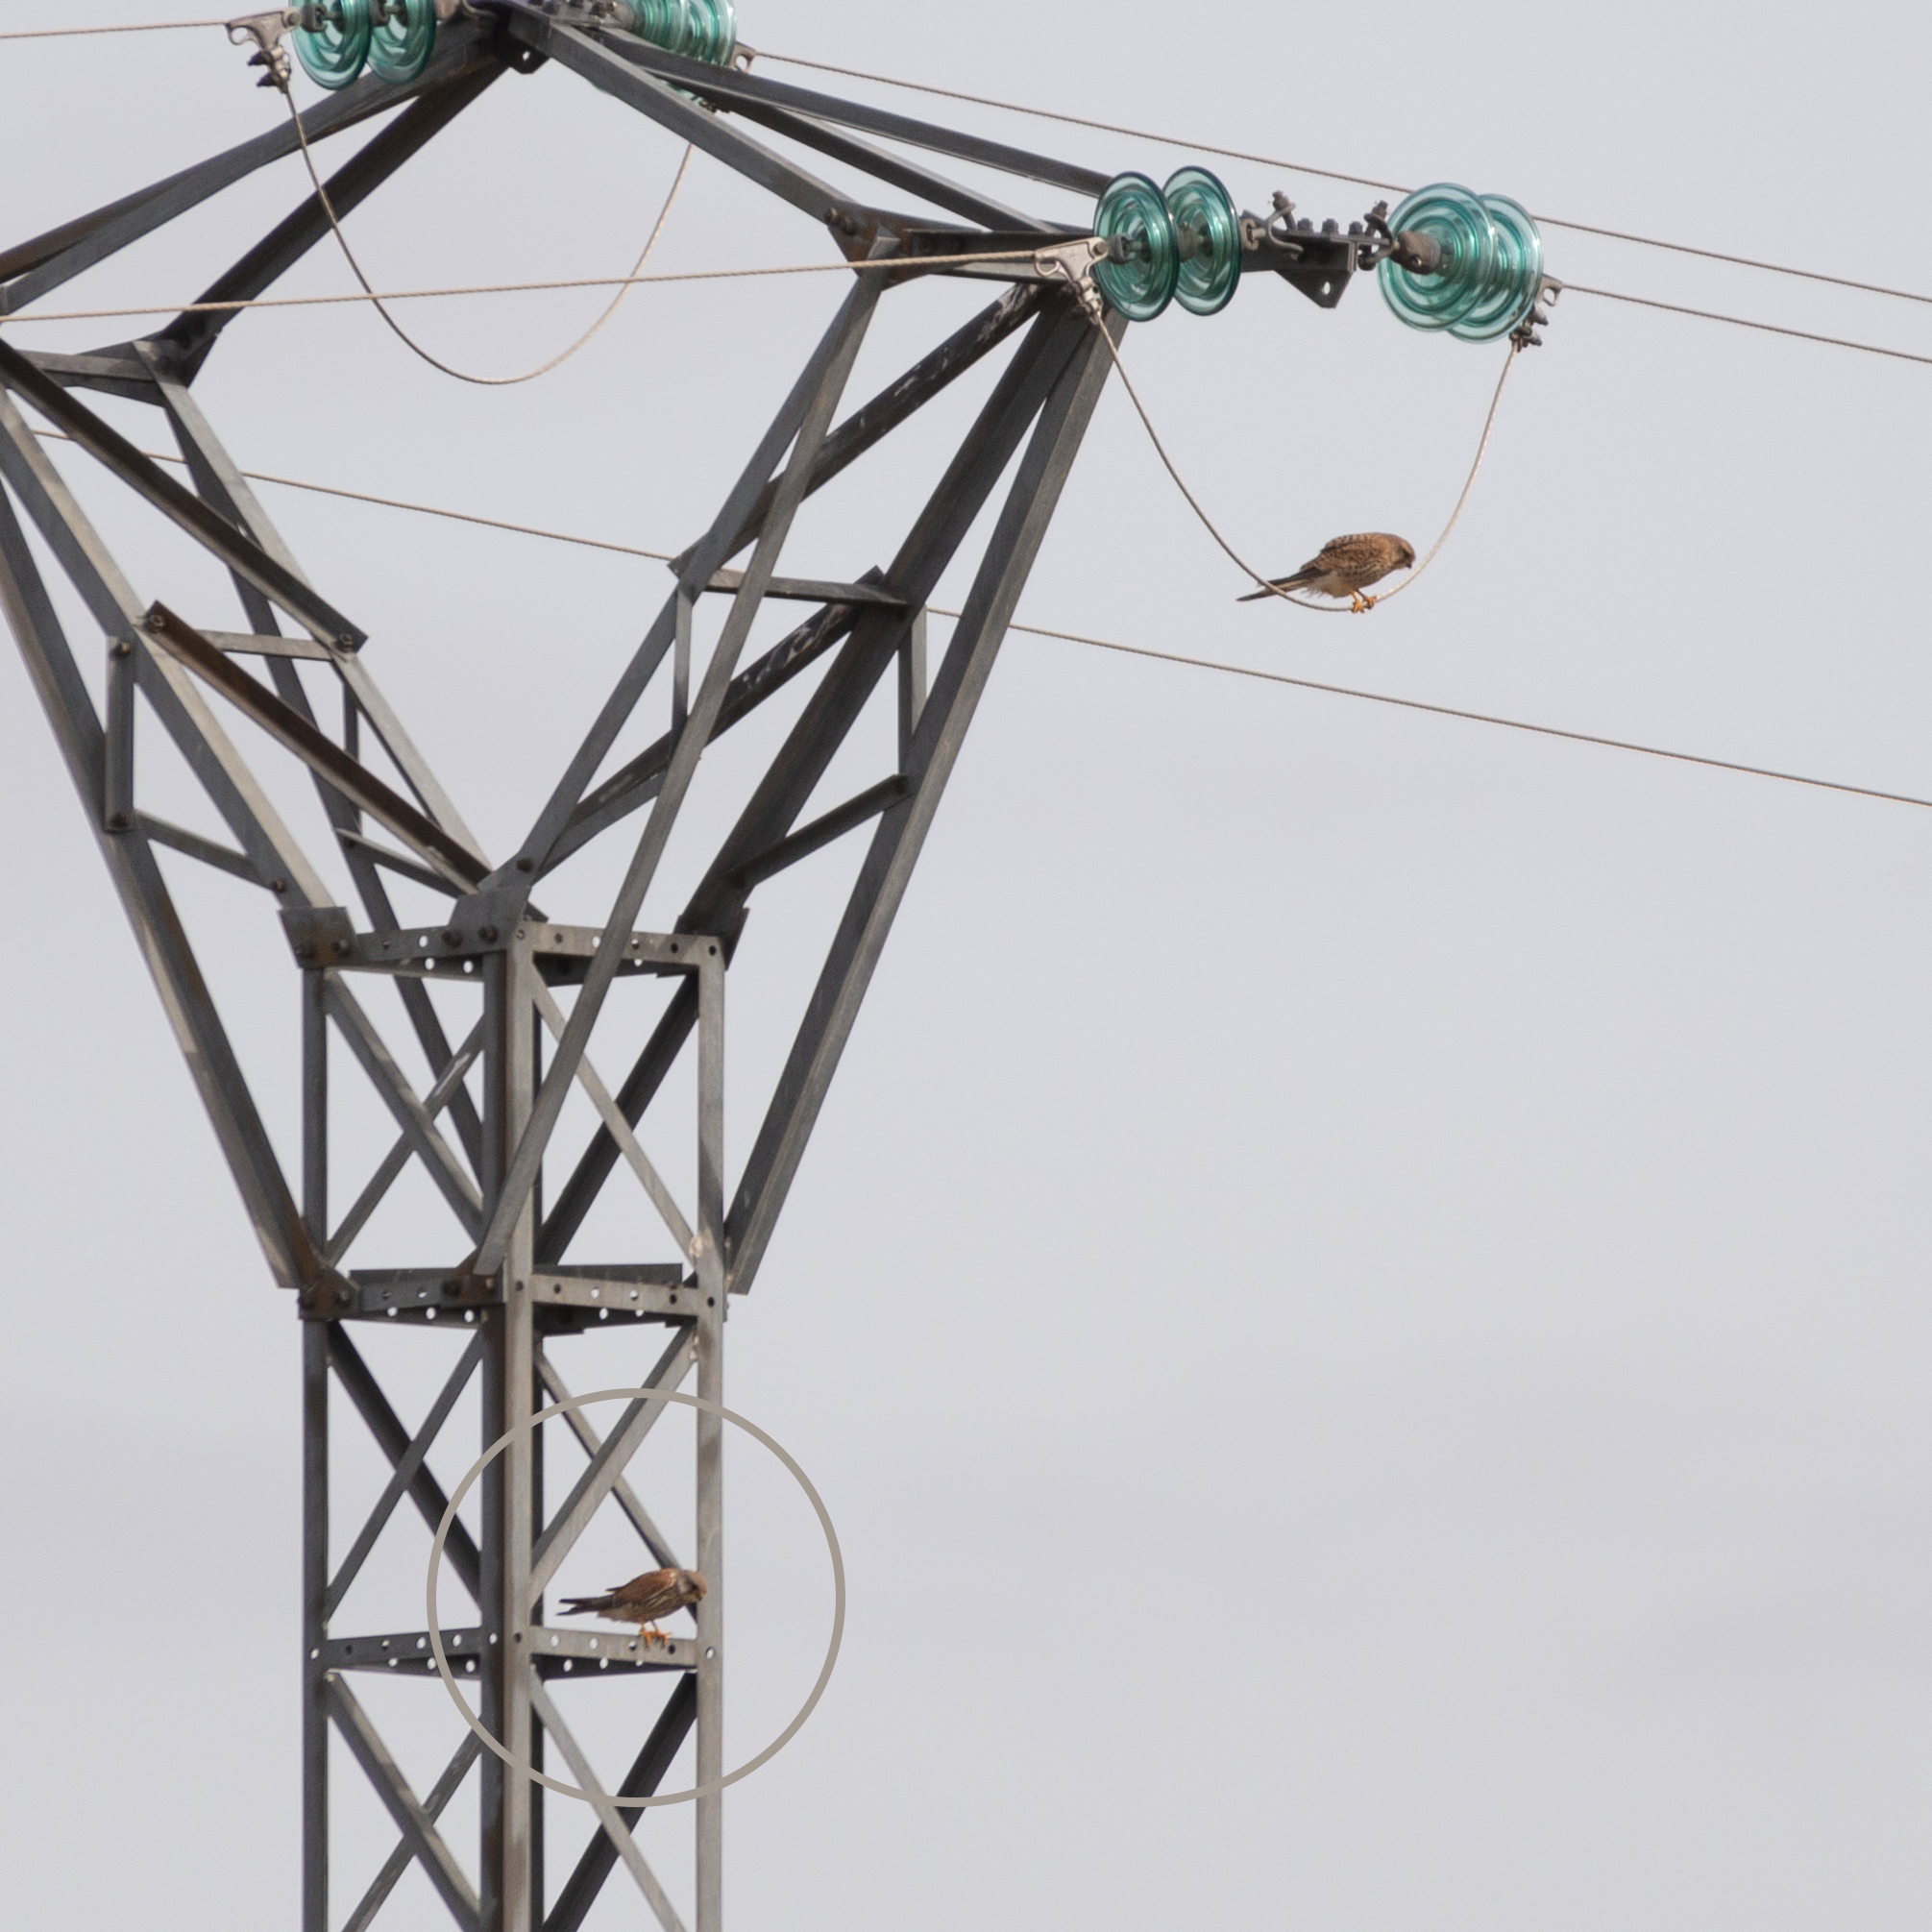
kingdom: Animalia
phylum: Chordata
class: Aves
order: Falconiformes
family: Falconidae
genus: Falco
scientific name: Falco tinnunculus
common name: Common kestrel
